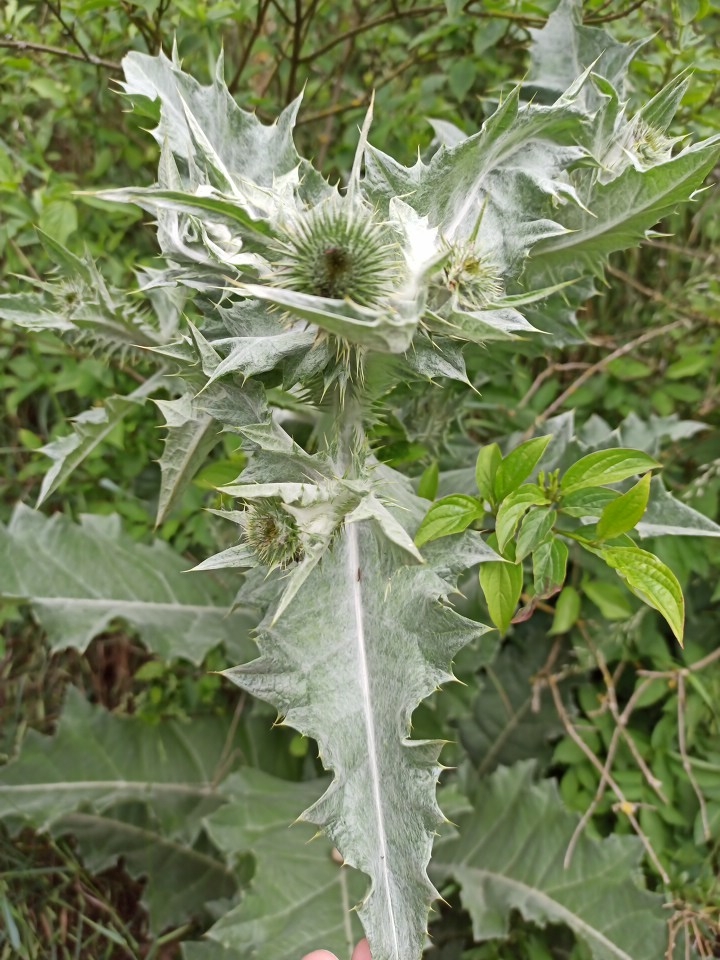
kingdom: Plantae
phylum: Tracheophyta
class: Magnoliopsida
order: Asterales
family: Asteraceae
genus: Onopordum
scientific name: Onopordum acanthium
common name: Scotch thistle
